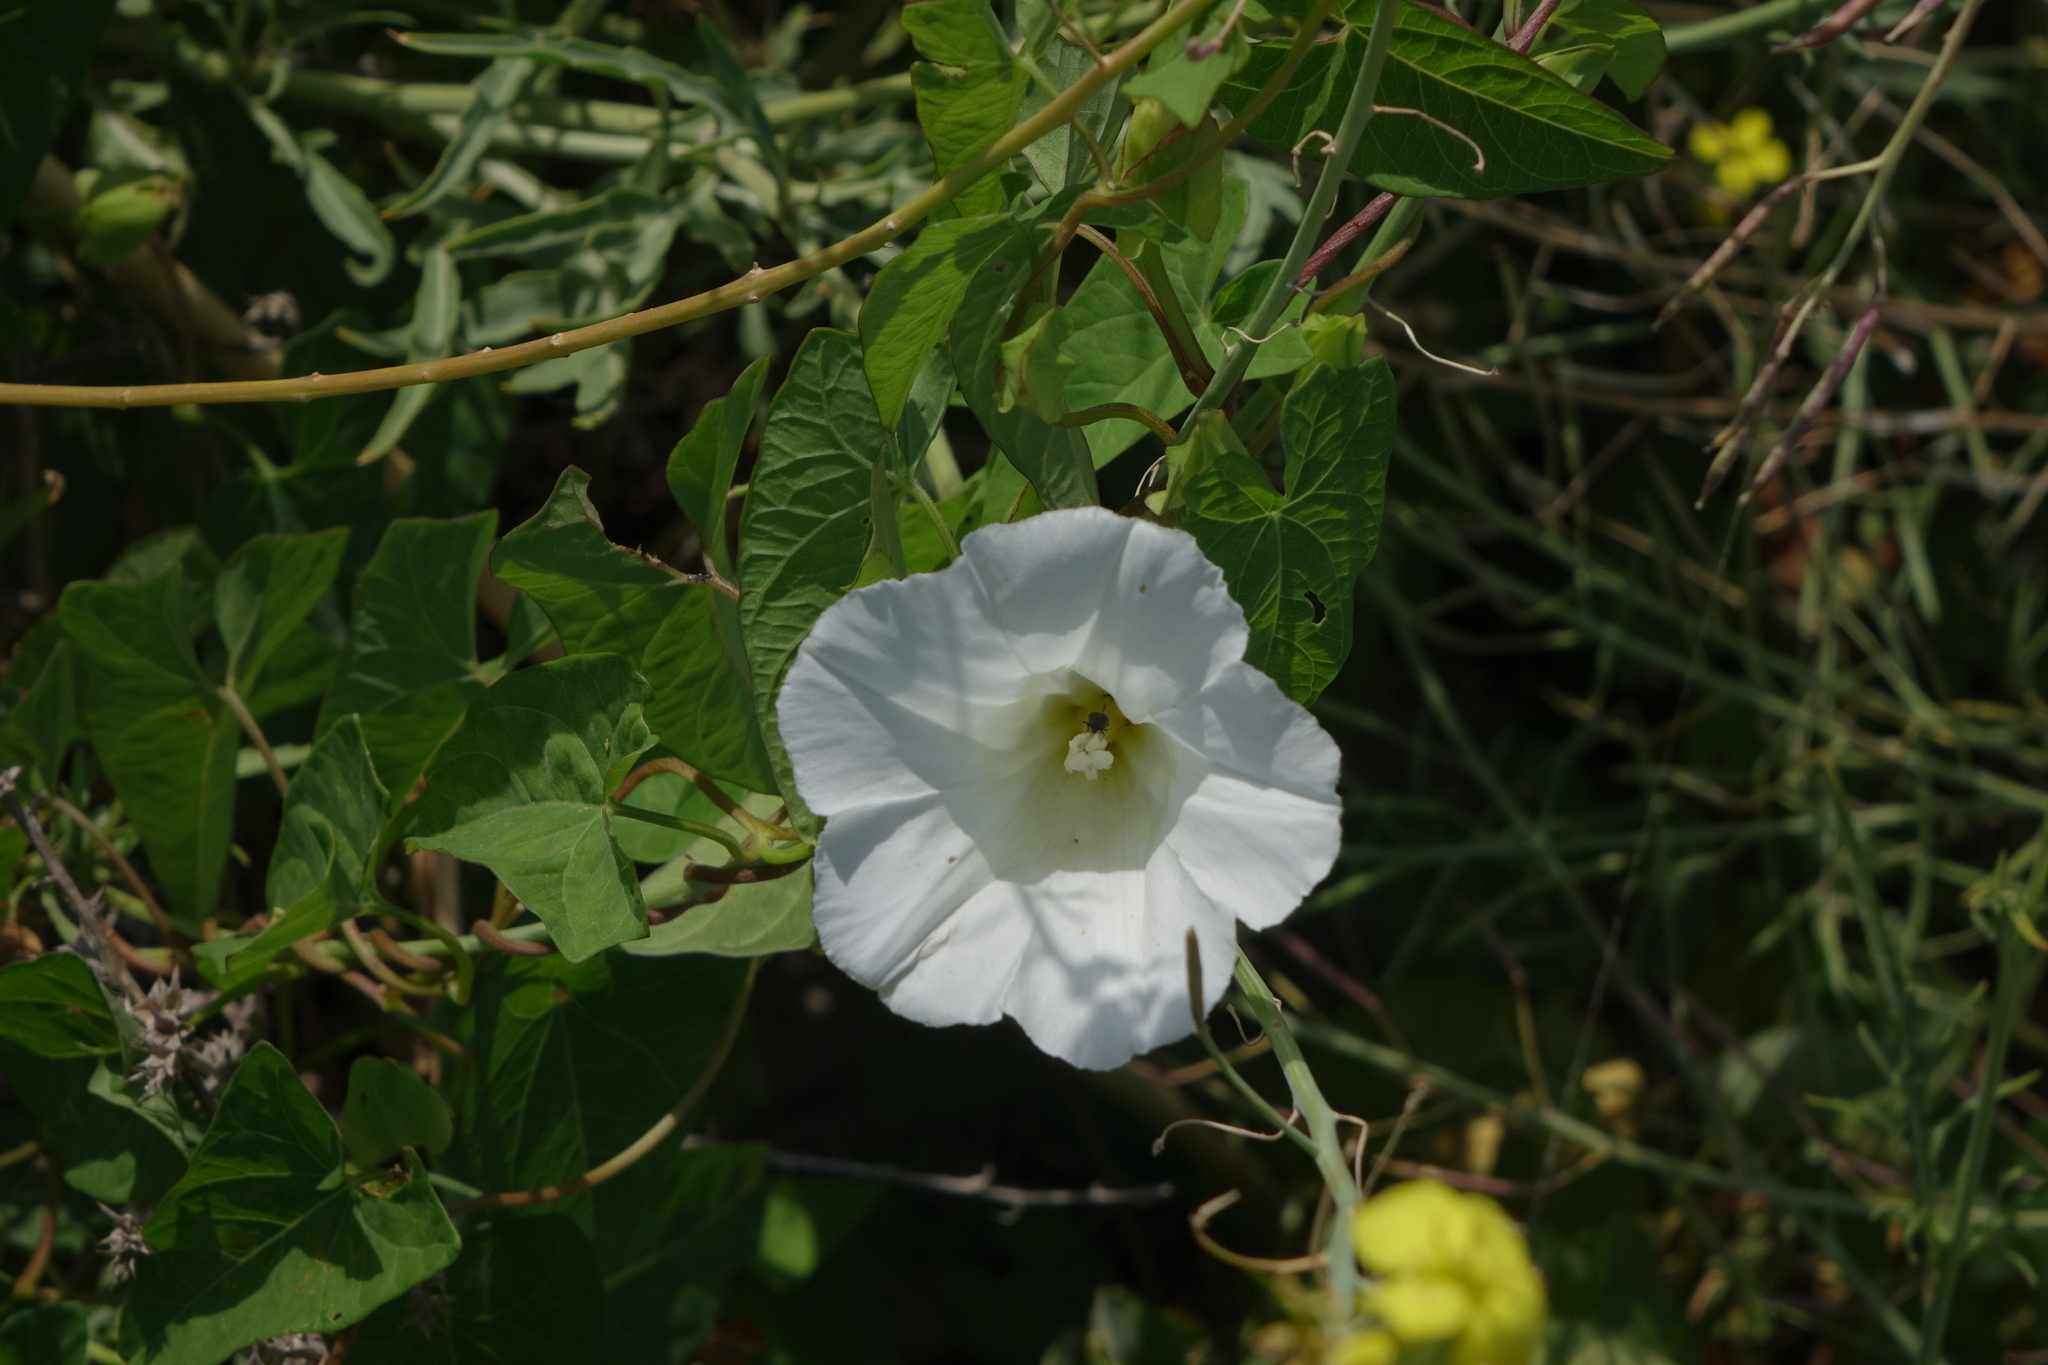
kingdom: Plantae
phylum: Tracheophyta
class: Magnoliopsida
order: Solanales
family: Convolvulaceae
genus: Calystegia
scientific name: Calystegia silvatica
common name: Large bindweed
